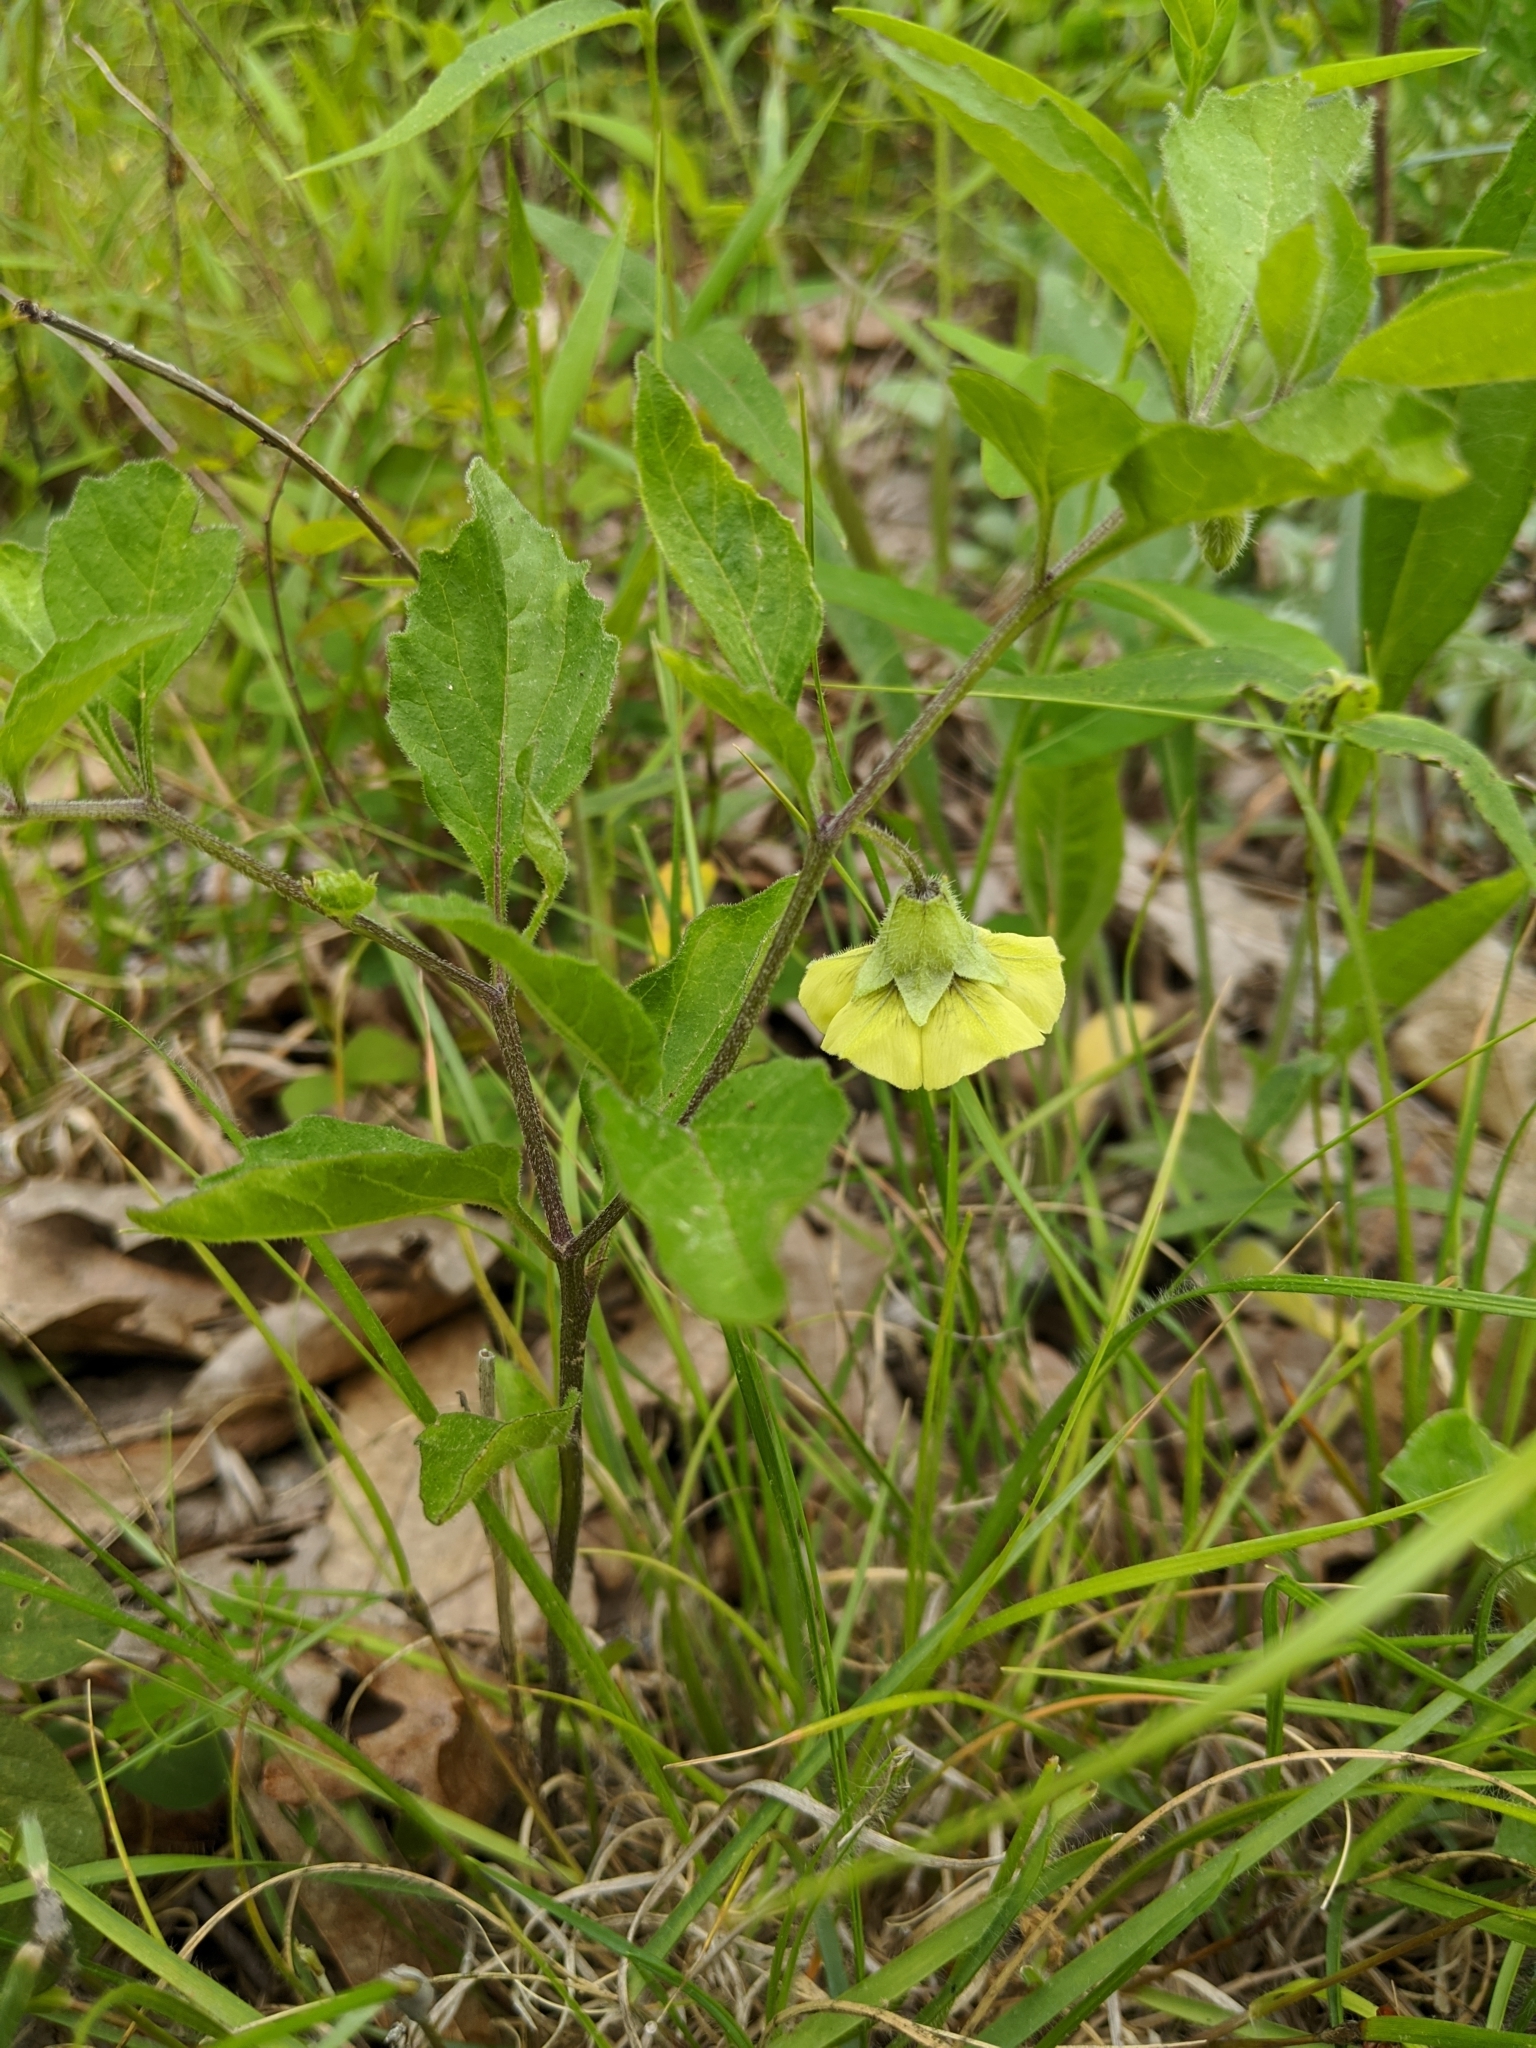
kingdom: Plantae
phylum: Tracheophyta
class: Magnoliopsida
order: Solanales
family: Solanaceae
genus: Physalis
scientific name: Physalis virginiana
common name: Virginia ground-cherry
